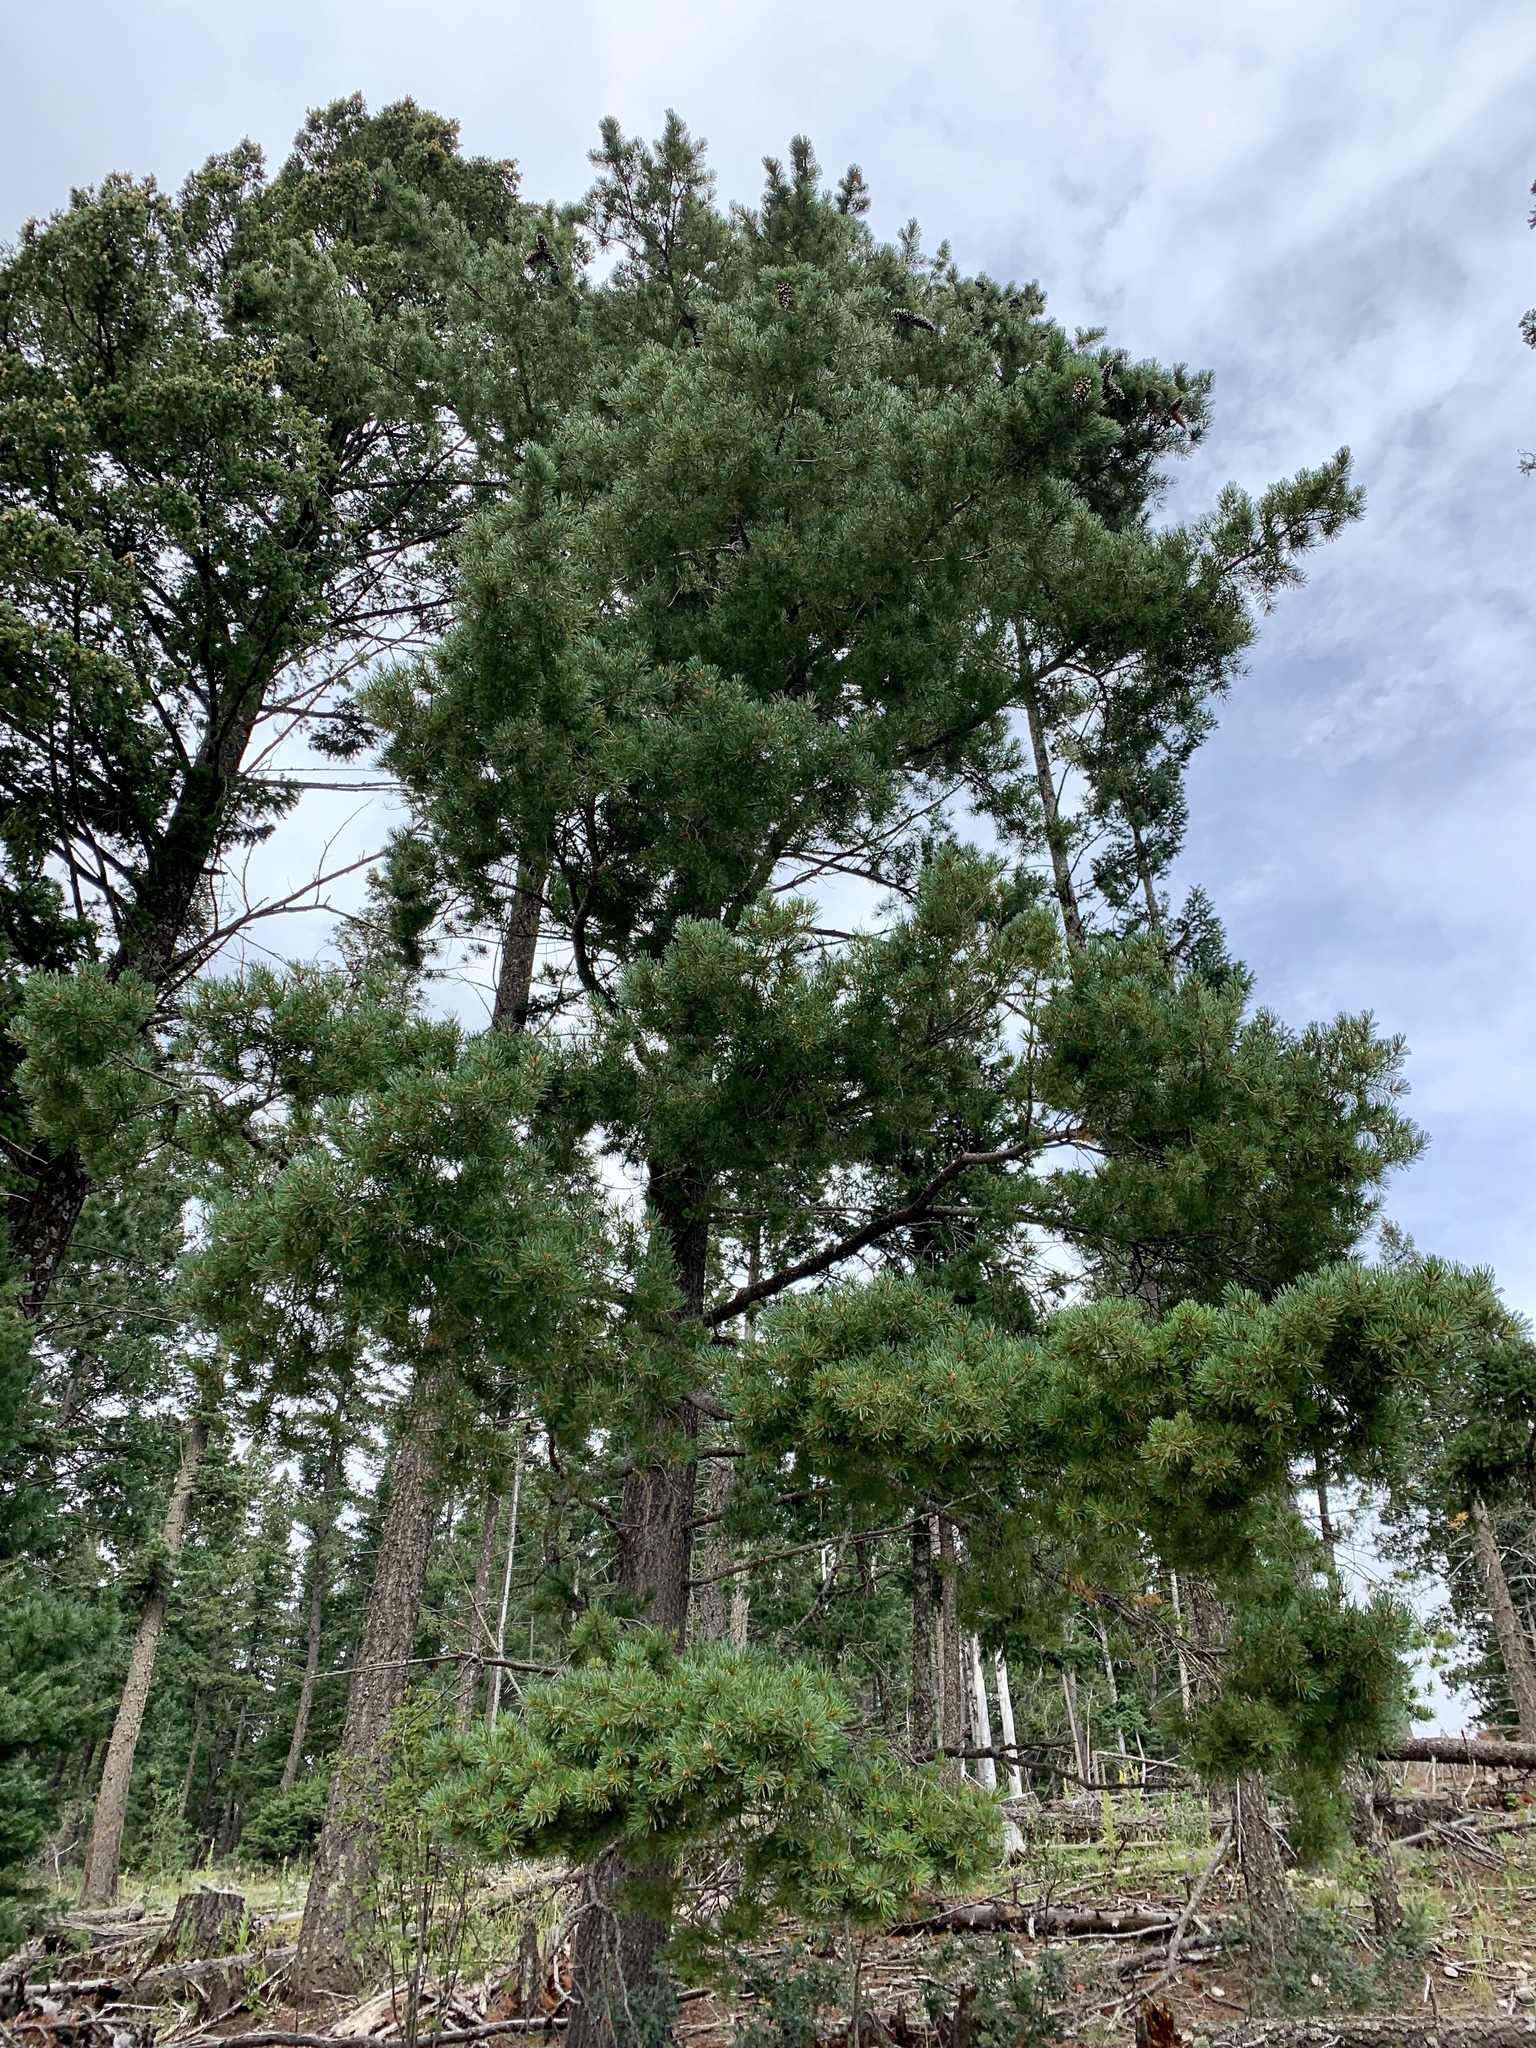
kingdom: Plantae
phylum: Tracheophyta
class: Pinopsida
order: Pinales
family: Pinaceae
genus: Pinus
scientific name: Pinus strobiformis
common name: Southwestern white pine
